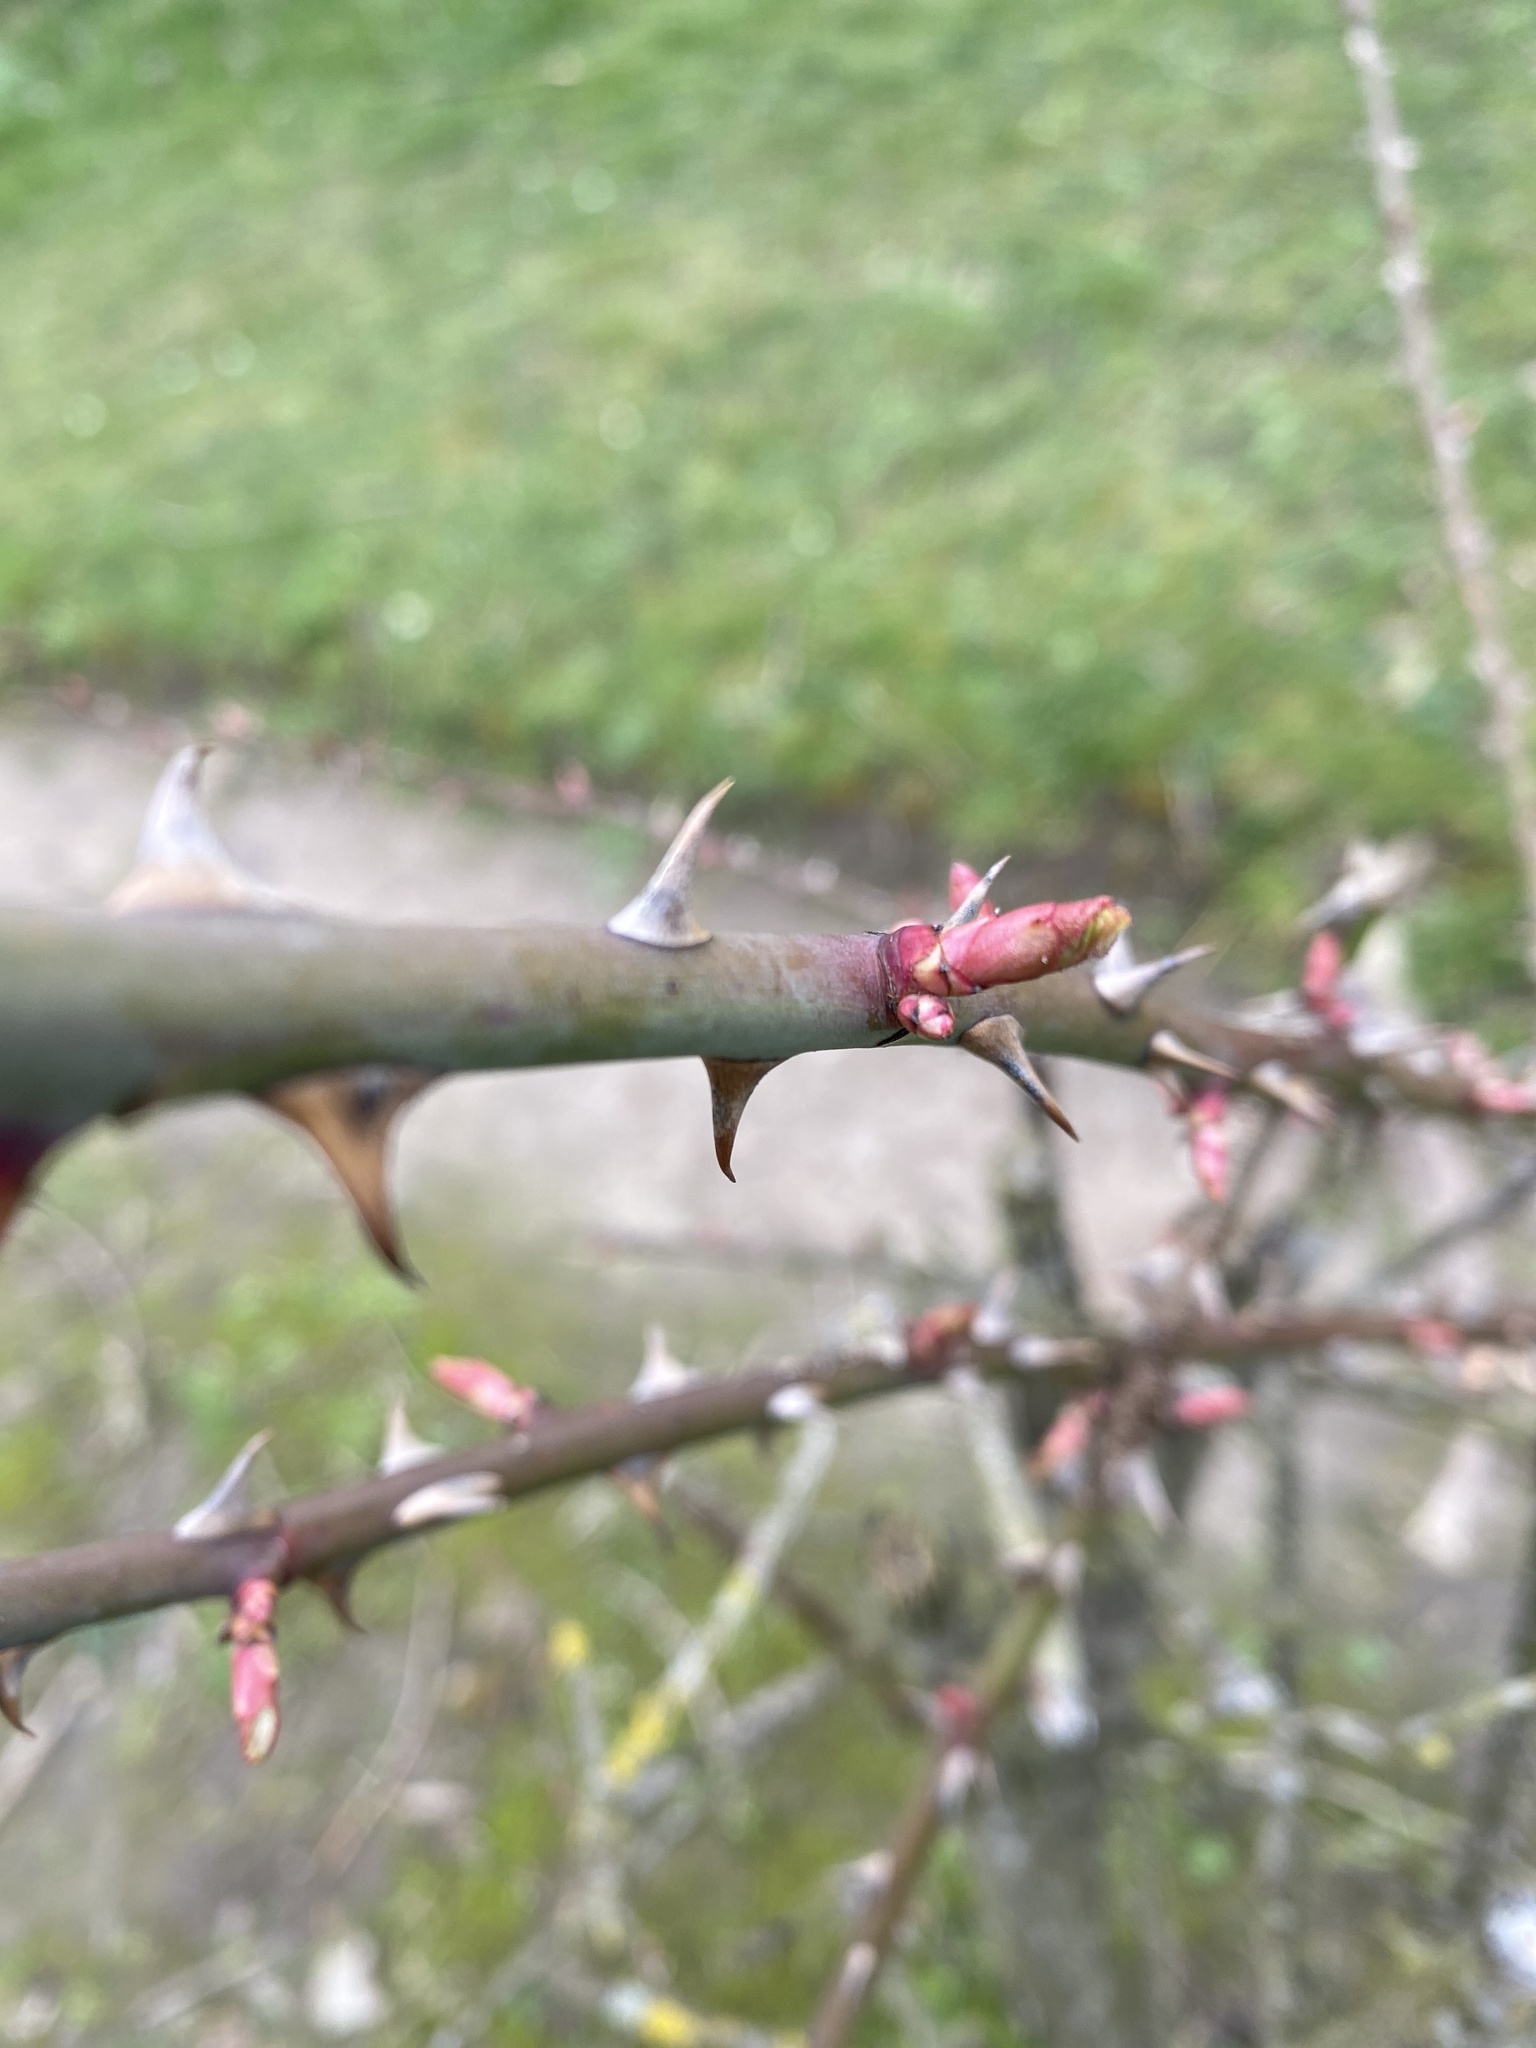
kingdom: Plantae
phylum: Tracheophyta
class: Magnoliopsida
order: Rosales
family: Rosaceae
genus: Rosa
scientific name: Rosa canina
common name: Dog rose
